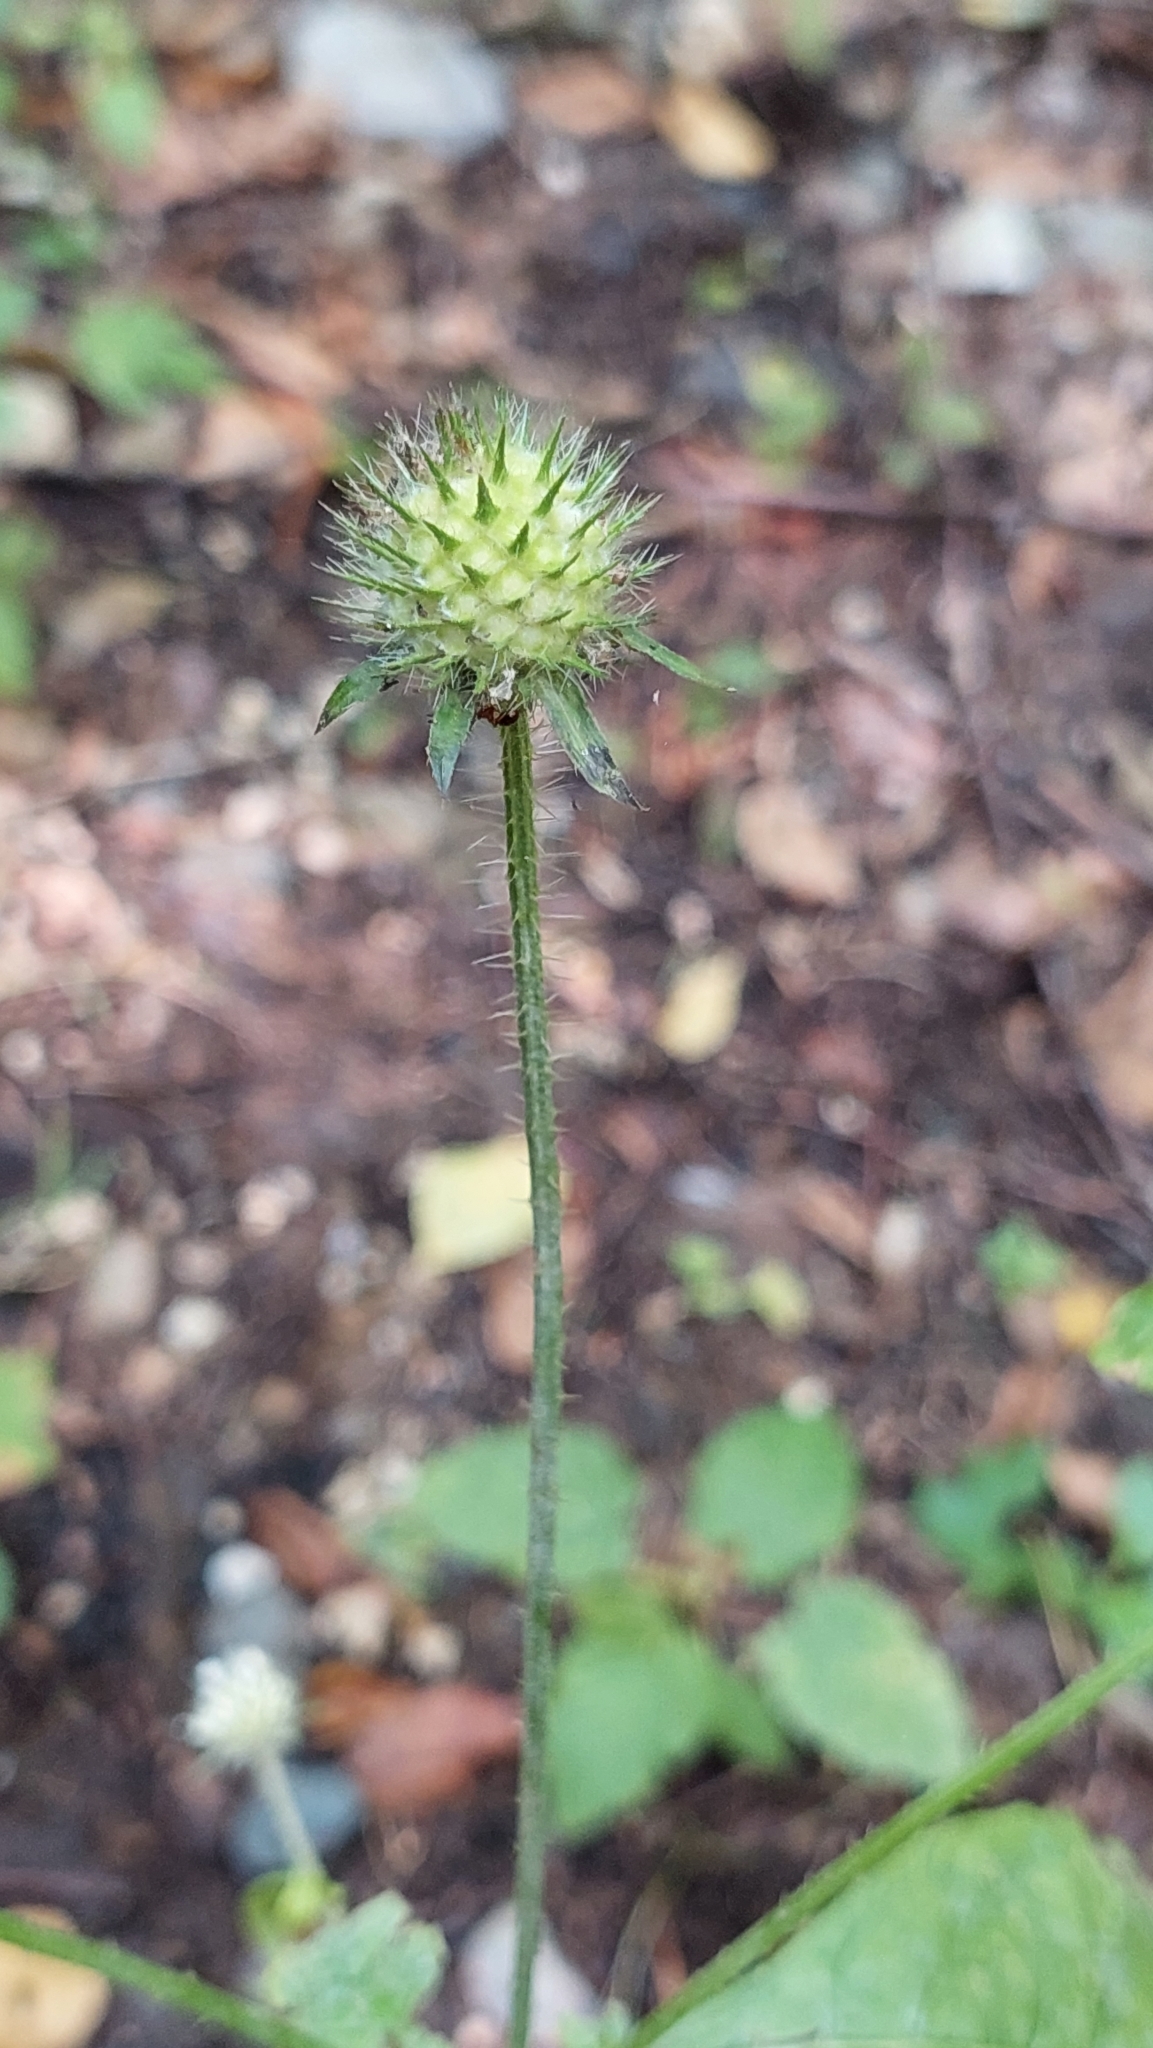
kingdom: Plantae
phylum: Tracheophyta
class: Magnoliopsida
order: Dipsacales
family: Caprifoliaceae
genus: Dipsacus
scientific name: Dipsacus pilosus
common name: Small teasel
